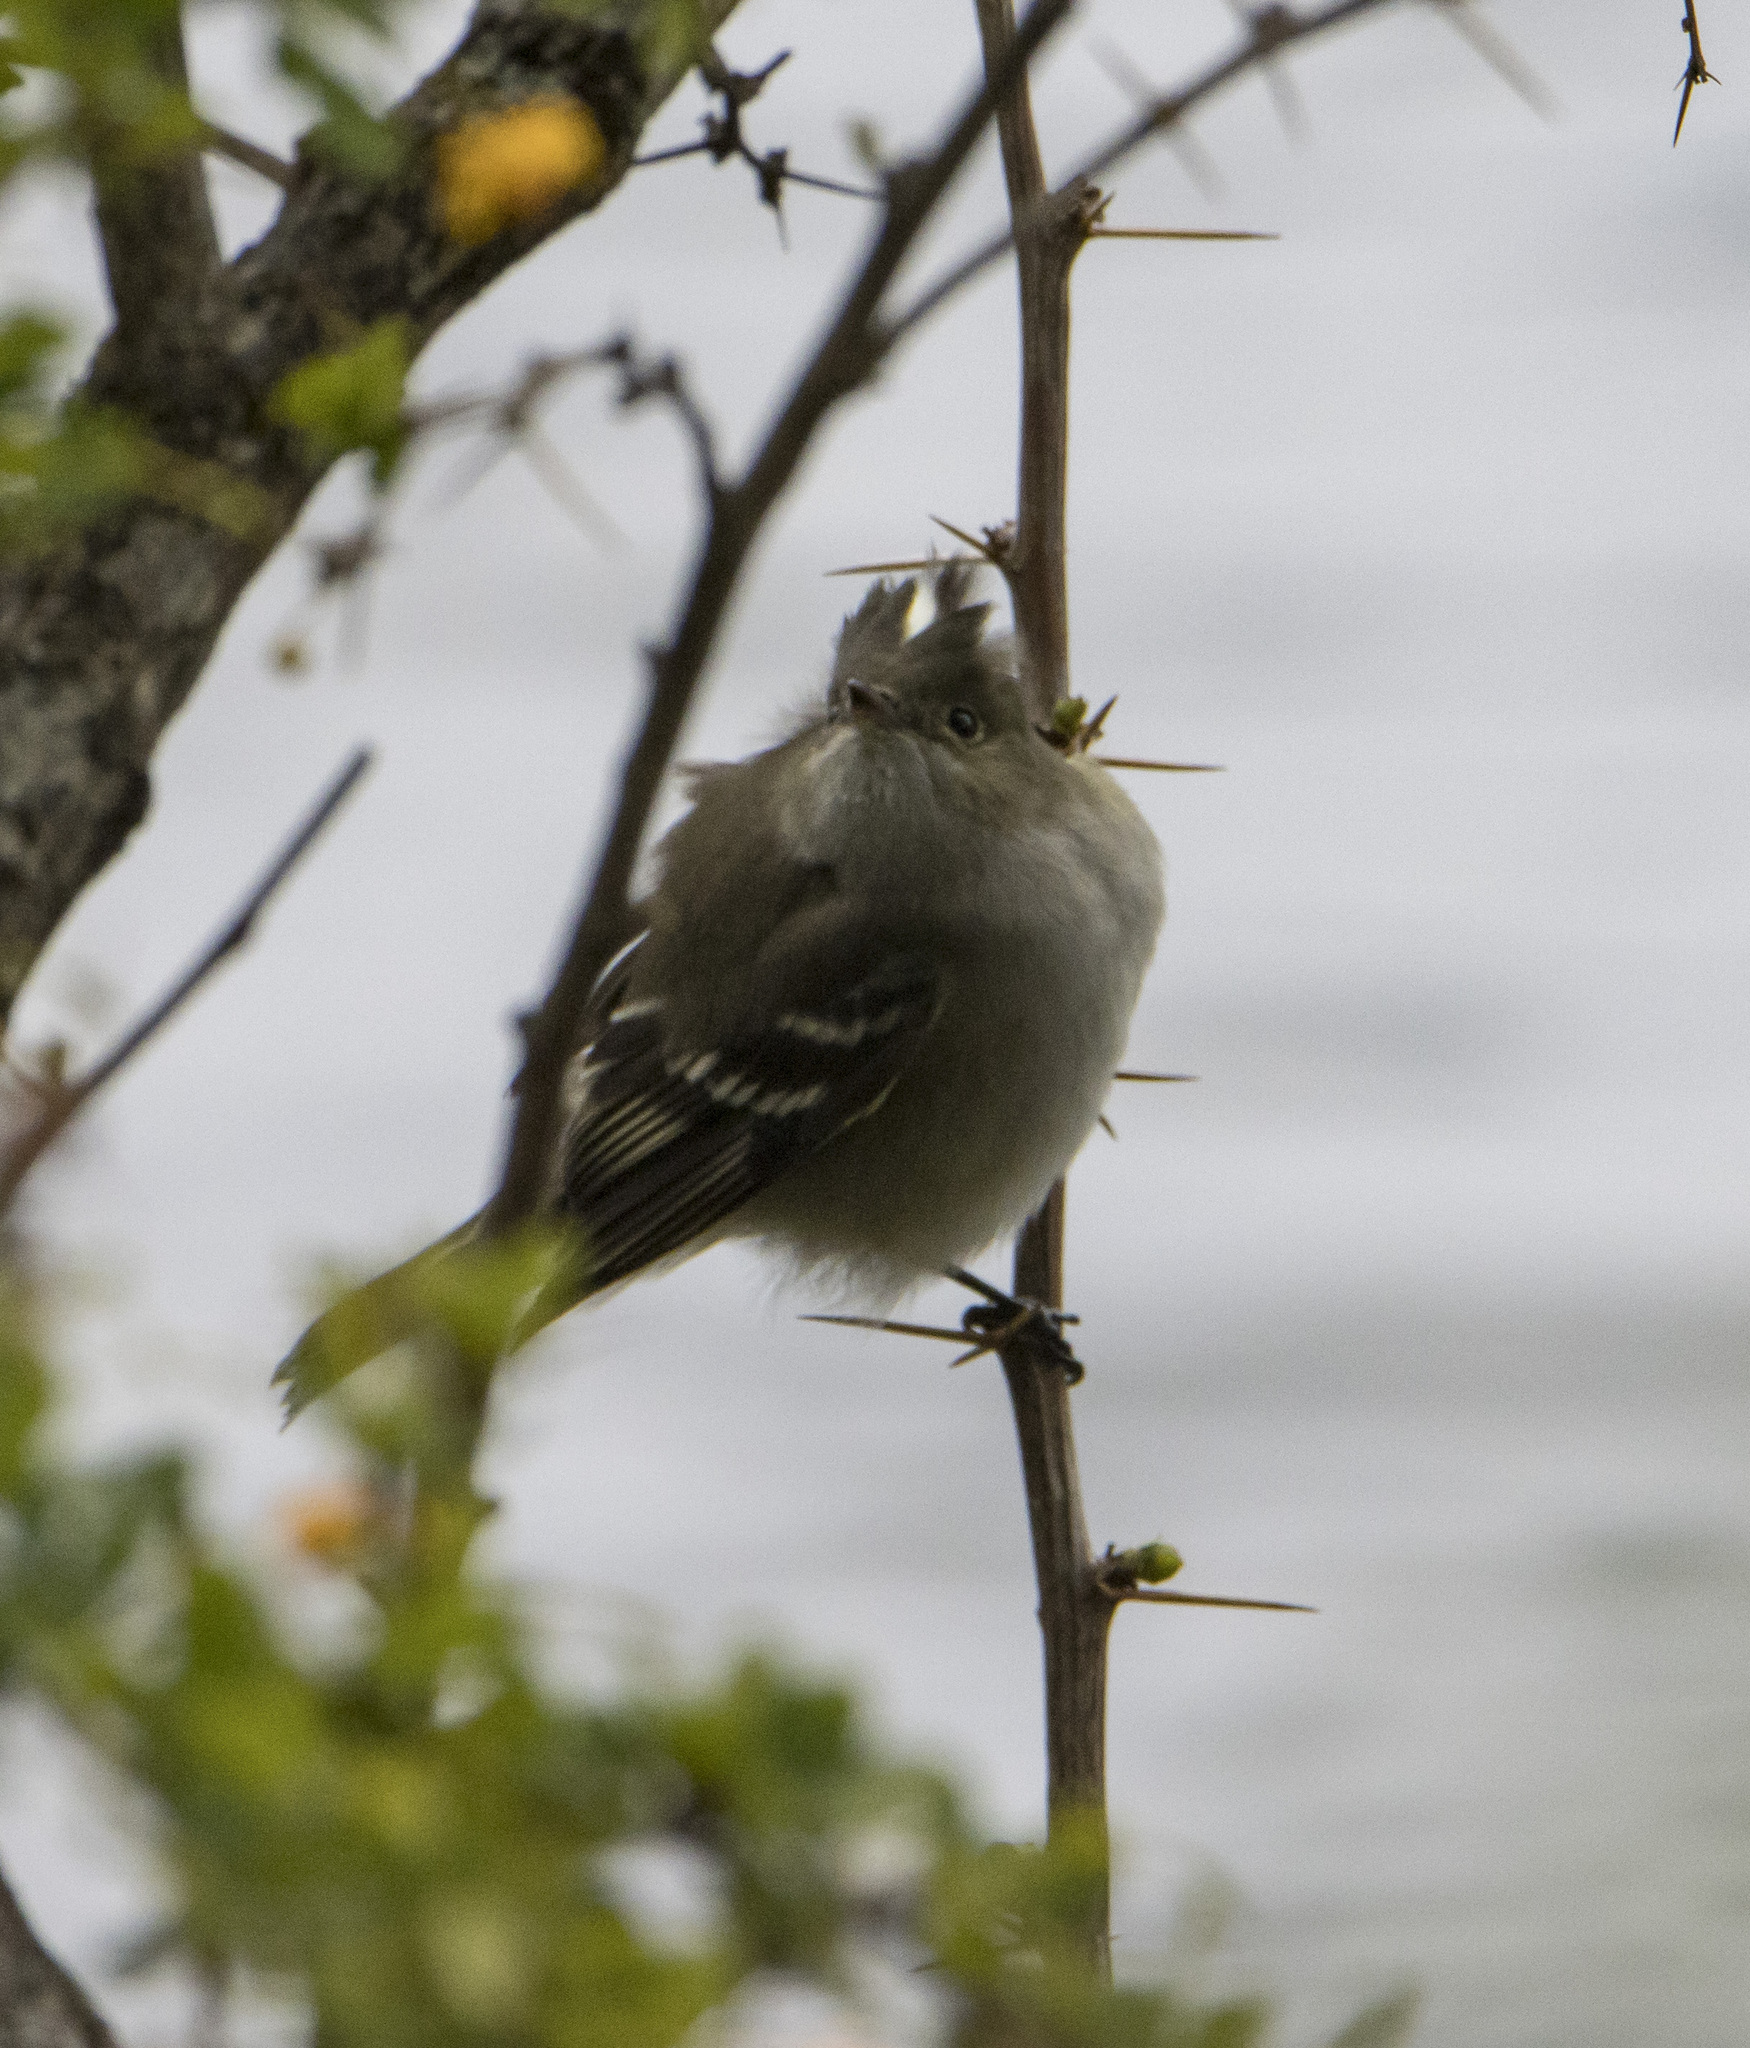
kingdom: Animalia
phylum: Chordata
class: Aves
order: Passeriformes
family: Tyrannidae
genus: Elaenia
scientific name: Elaenia albiceps
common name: White-crested elaenia
